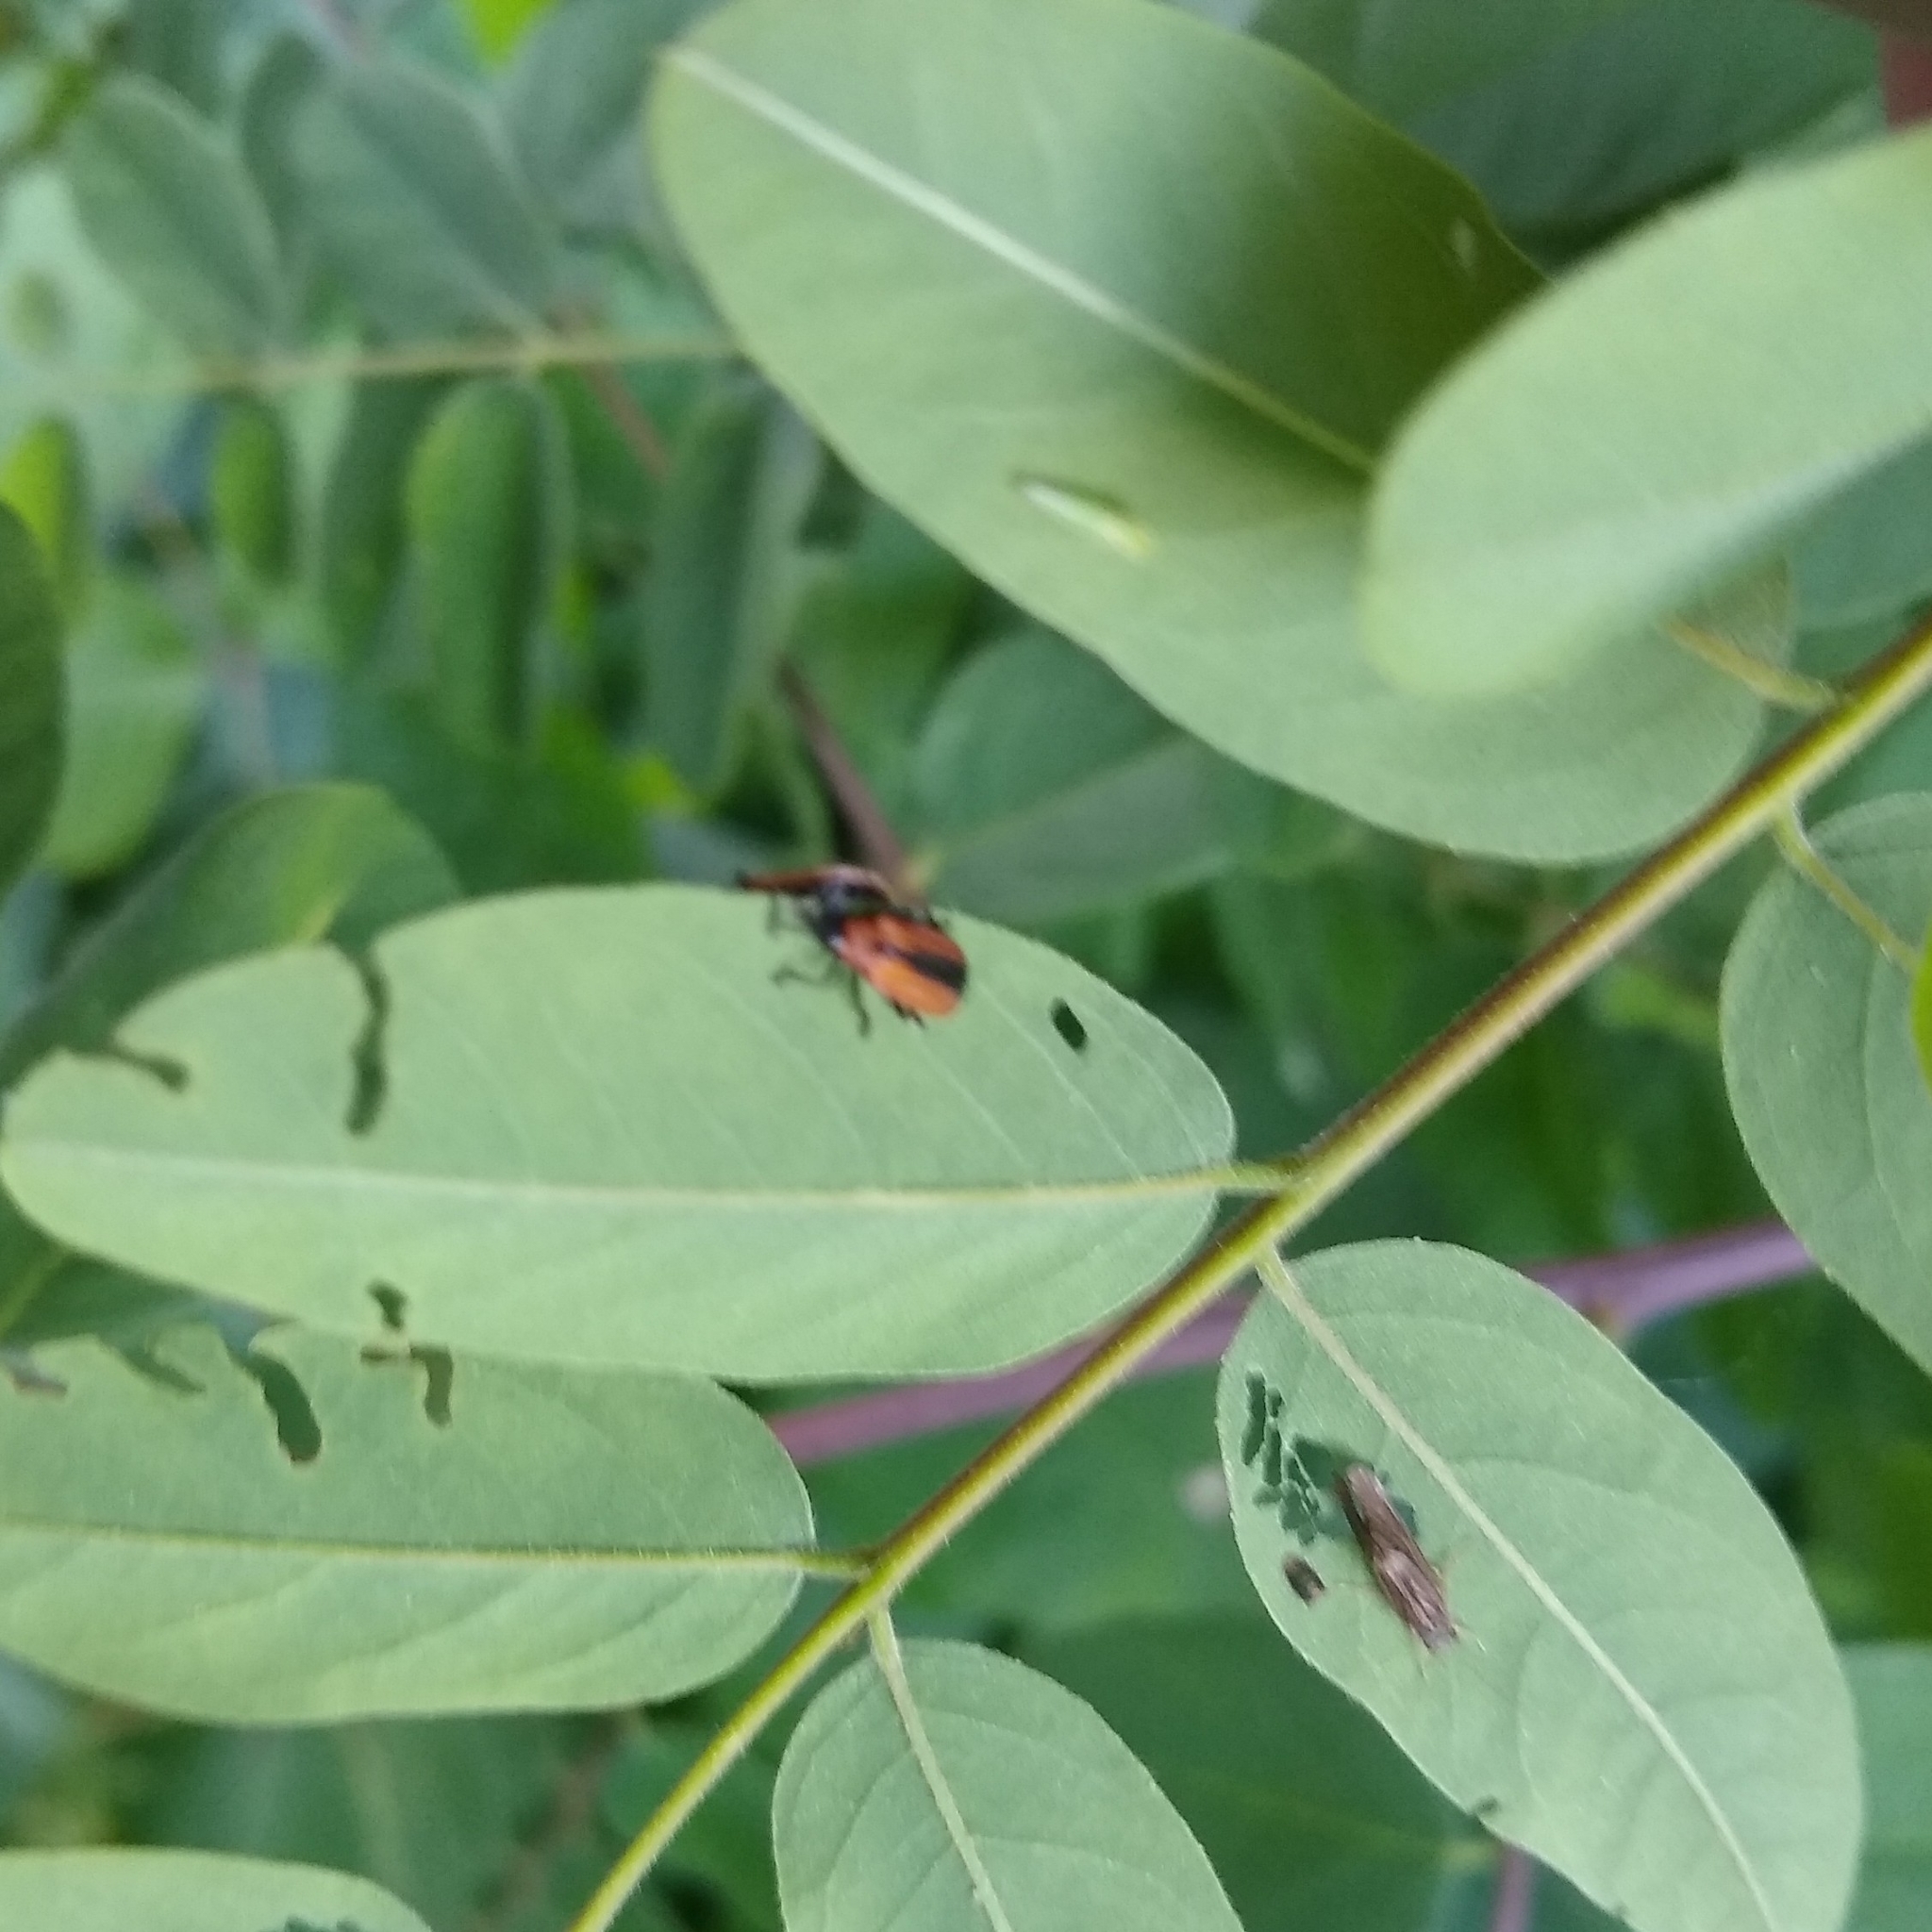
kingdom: Animalia
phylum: Arthropoda
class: Insecta
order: Coleoptera
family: Chrysomelidae
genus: Odontota
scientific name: Odontota dorsalis
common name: Locust leaf-miner beetle
